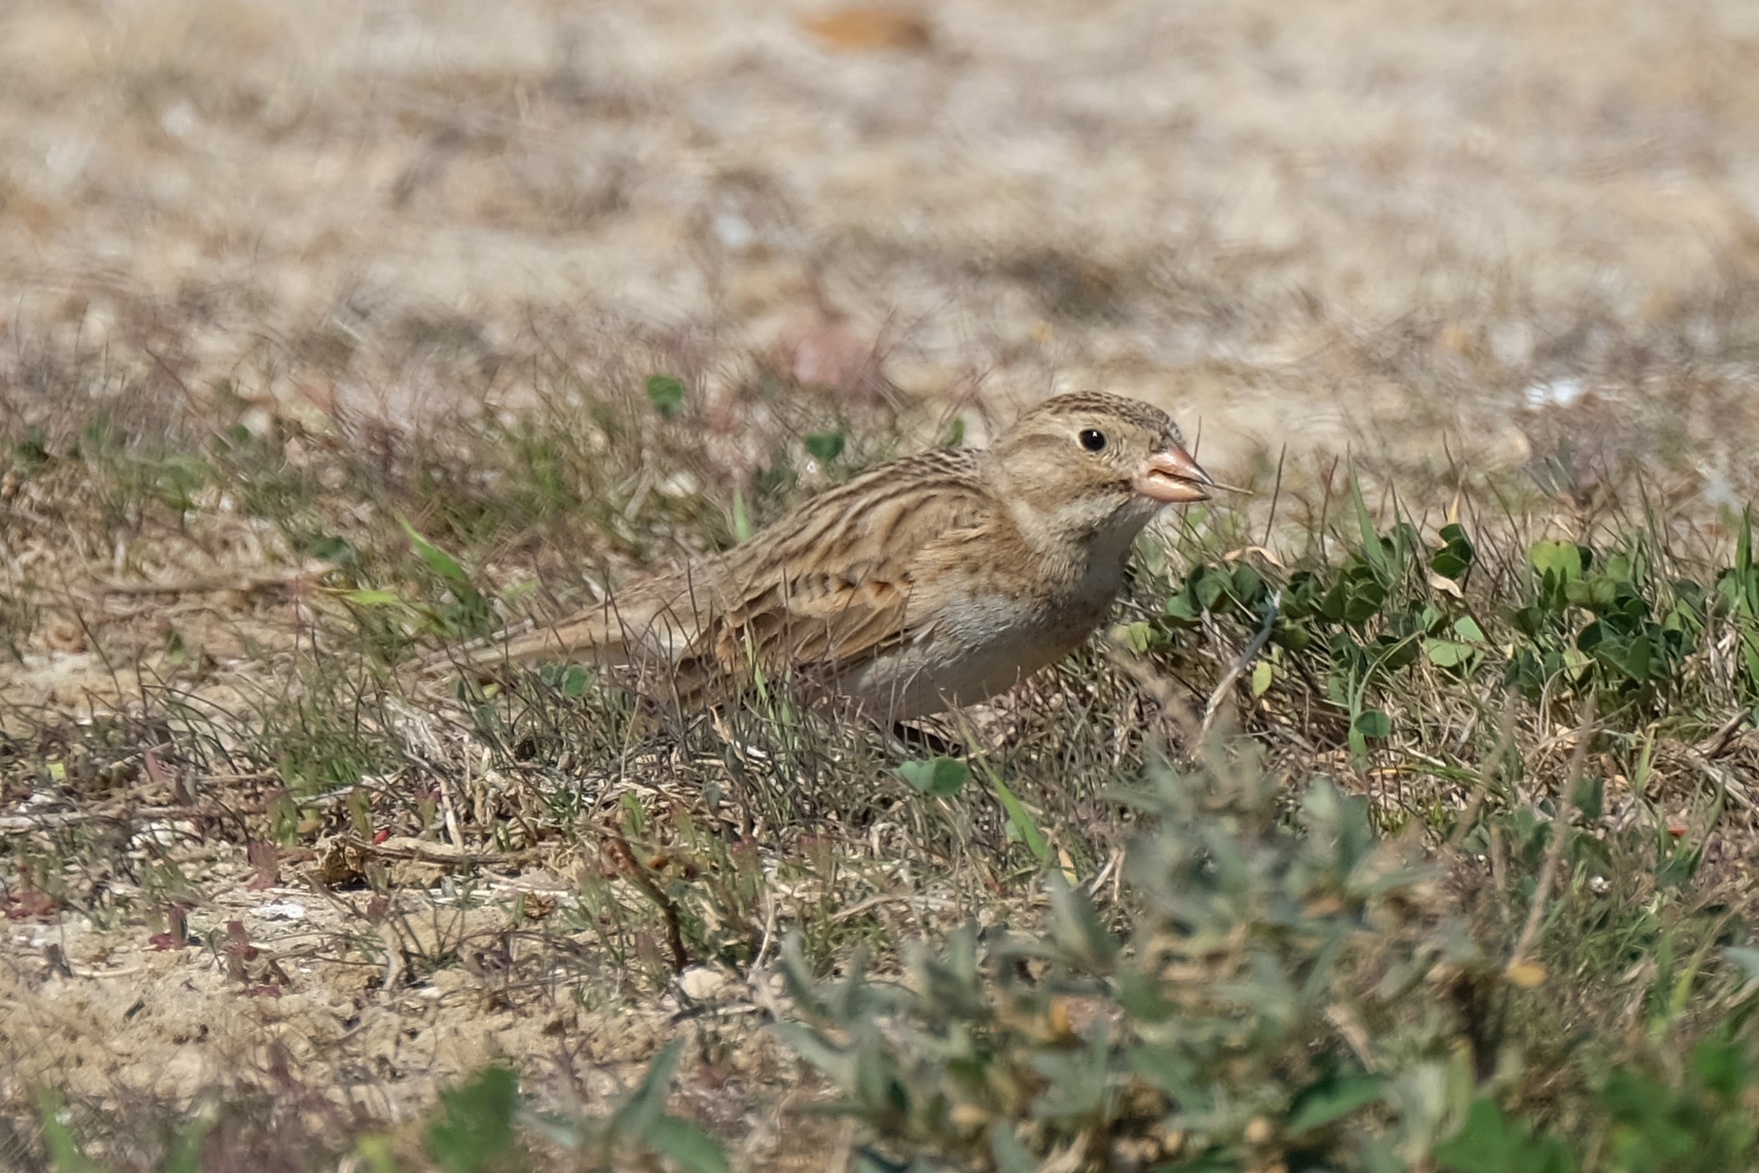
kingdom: Animalia
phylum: Chordata
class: Aves
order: Passeriformes
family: Calcariidae
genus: Rhynchophanes
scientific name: Rhynchophanes mccownii
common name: Mccown's longspur
